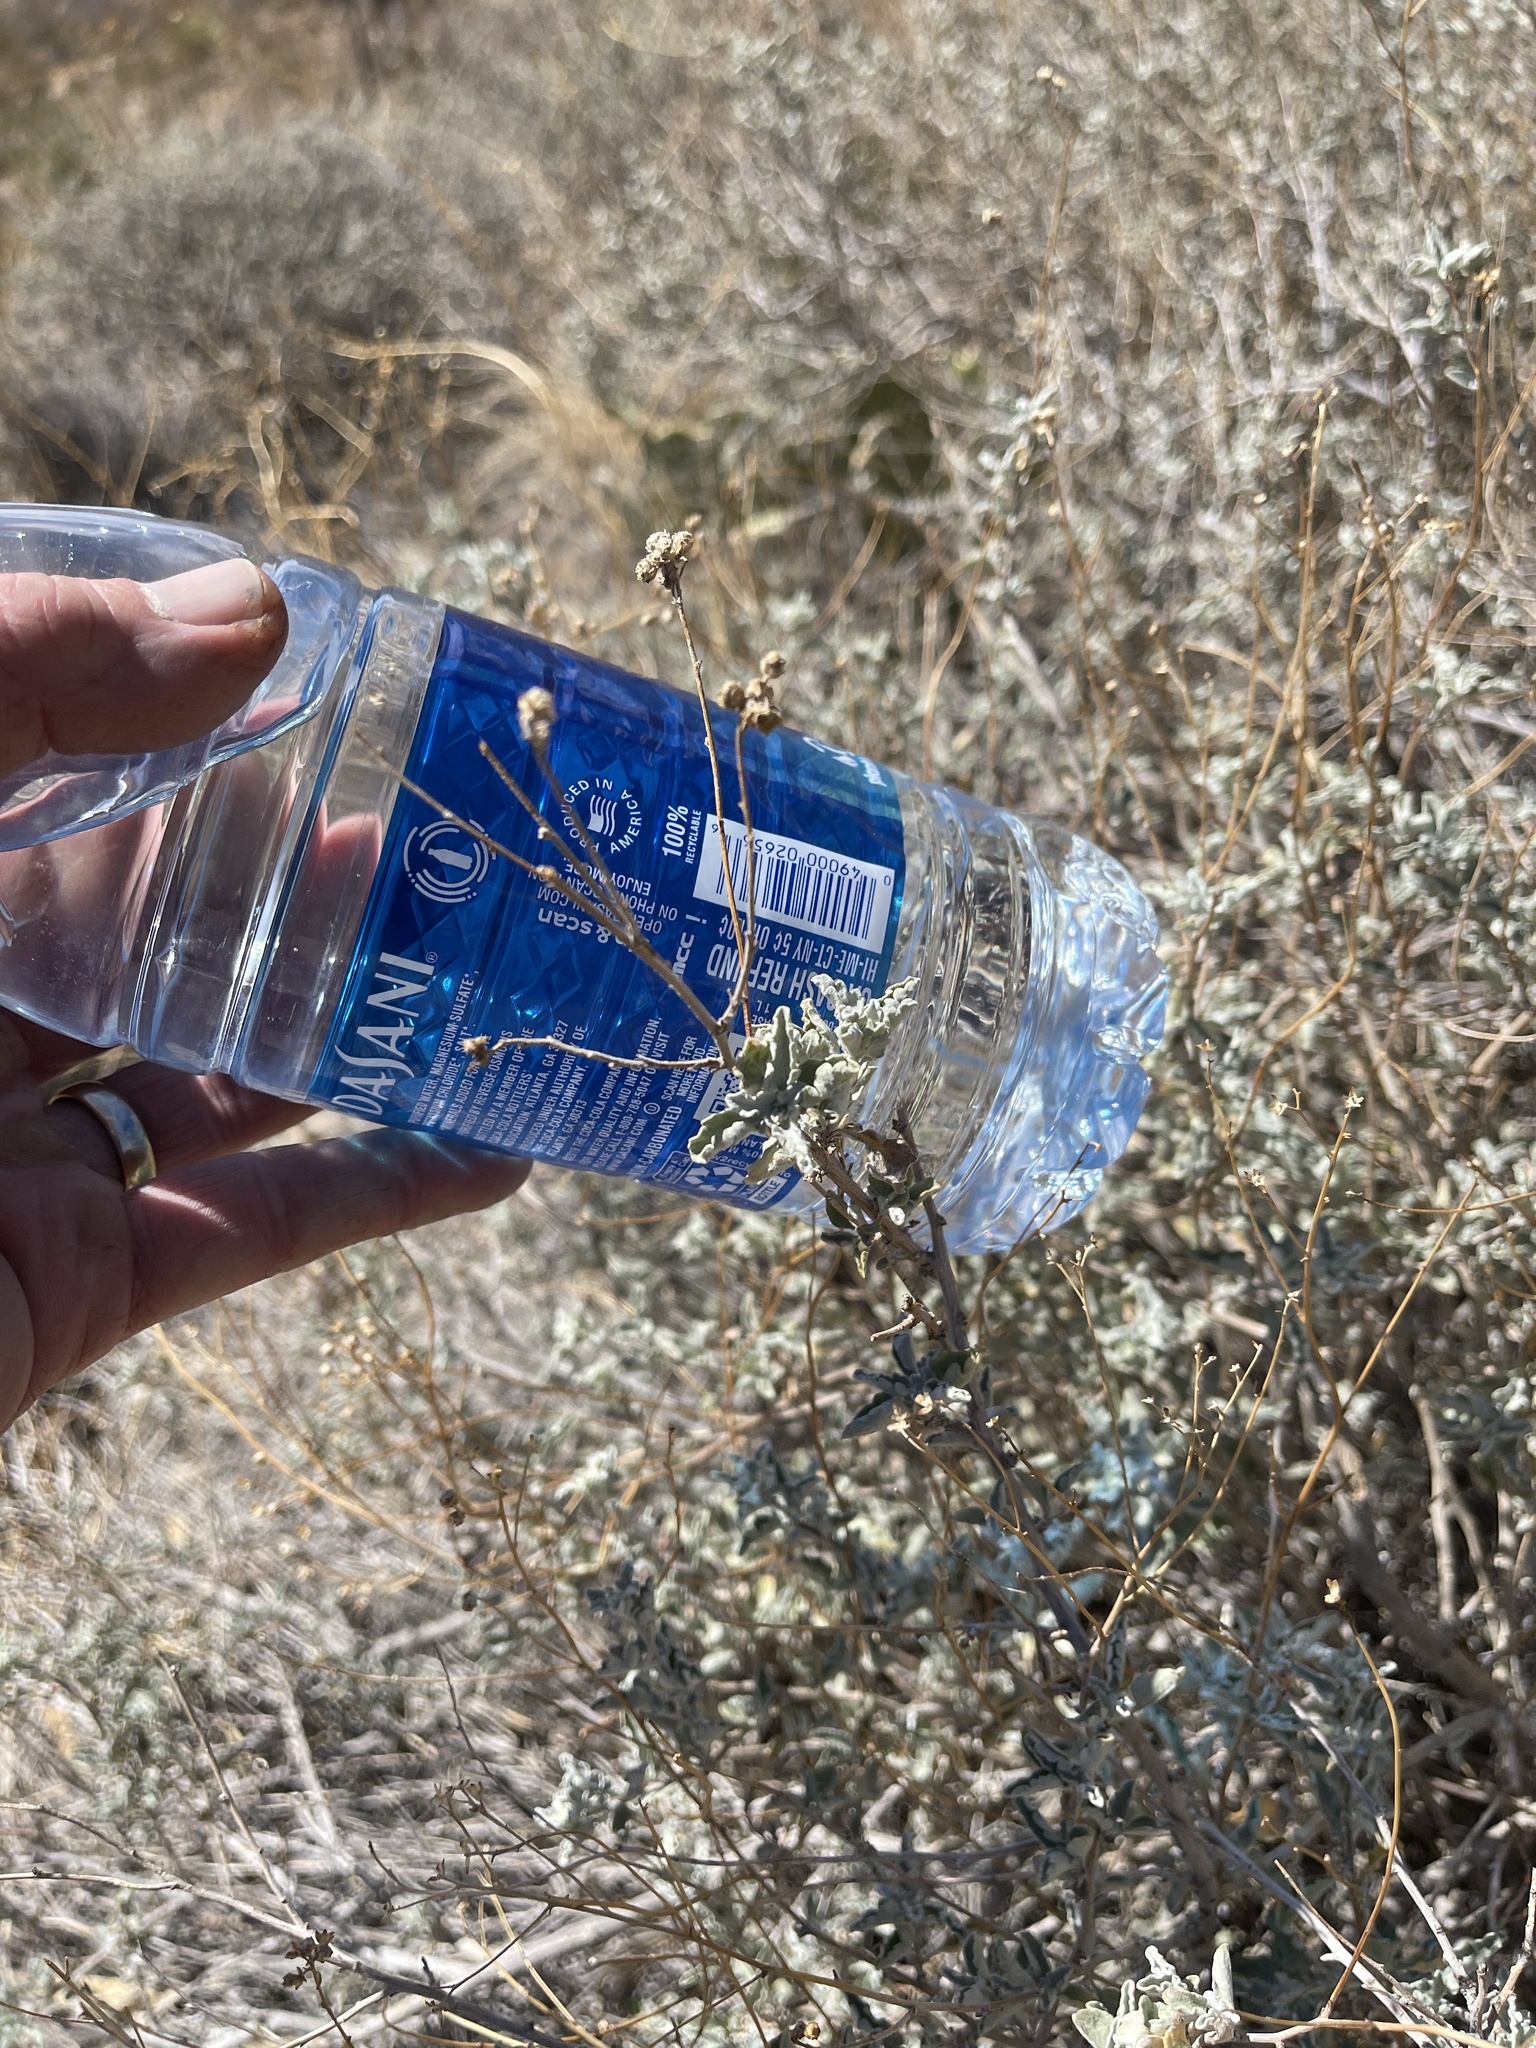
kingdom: Plantae
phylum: Tracheophyta
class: Magnoliopsida
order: Asterales
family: Asteraceae
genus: Parthenium
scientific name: Parthenium incanum
